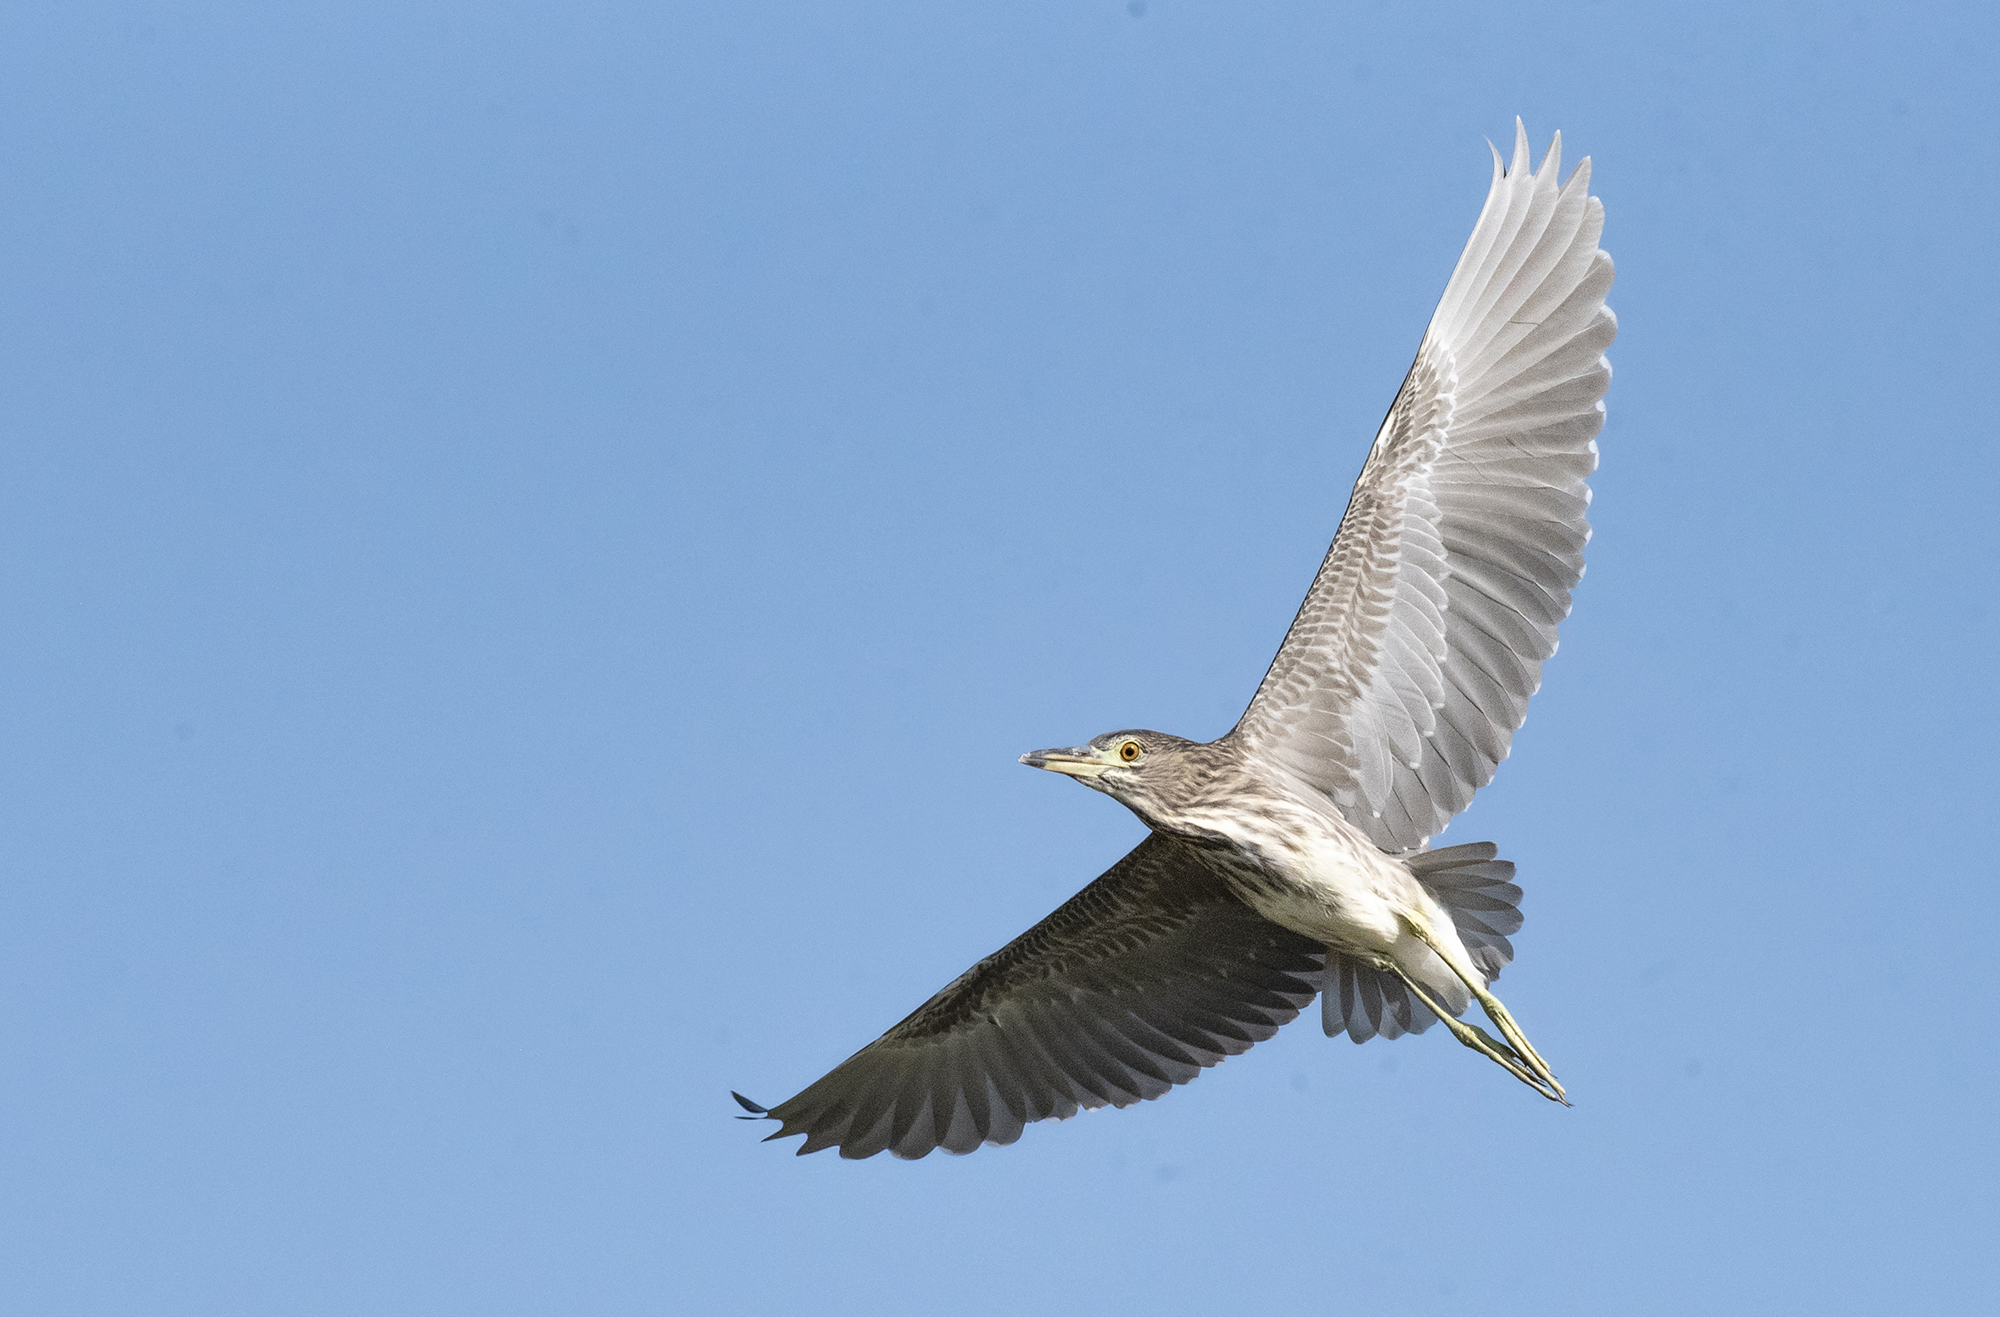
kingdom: Animalia
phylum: Chordata
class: Aves
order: Pelecaniformes
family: Ardeidae
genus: Nycticorax
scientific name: Nycticorax nycticorax
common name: Black-crowned night heron
